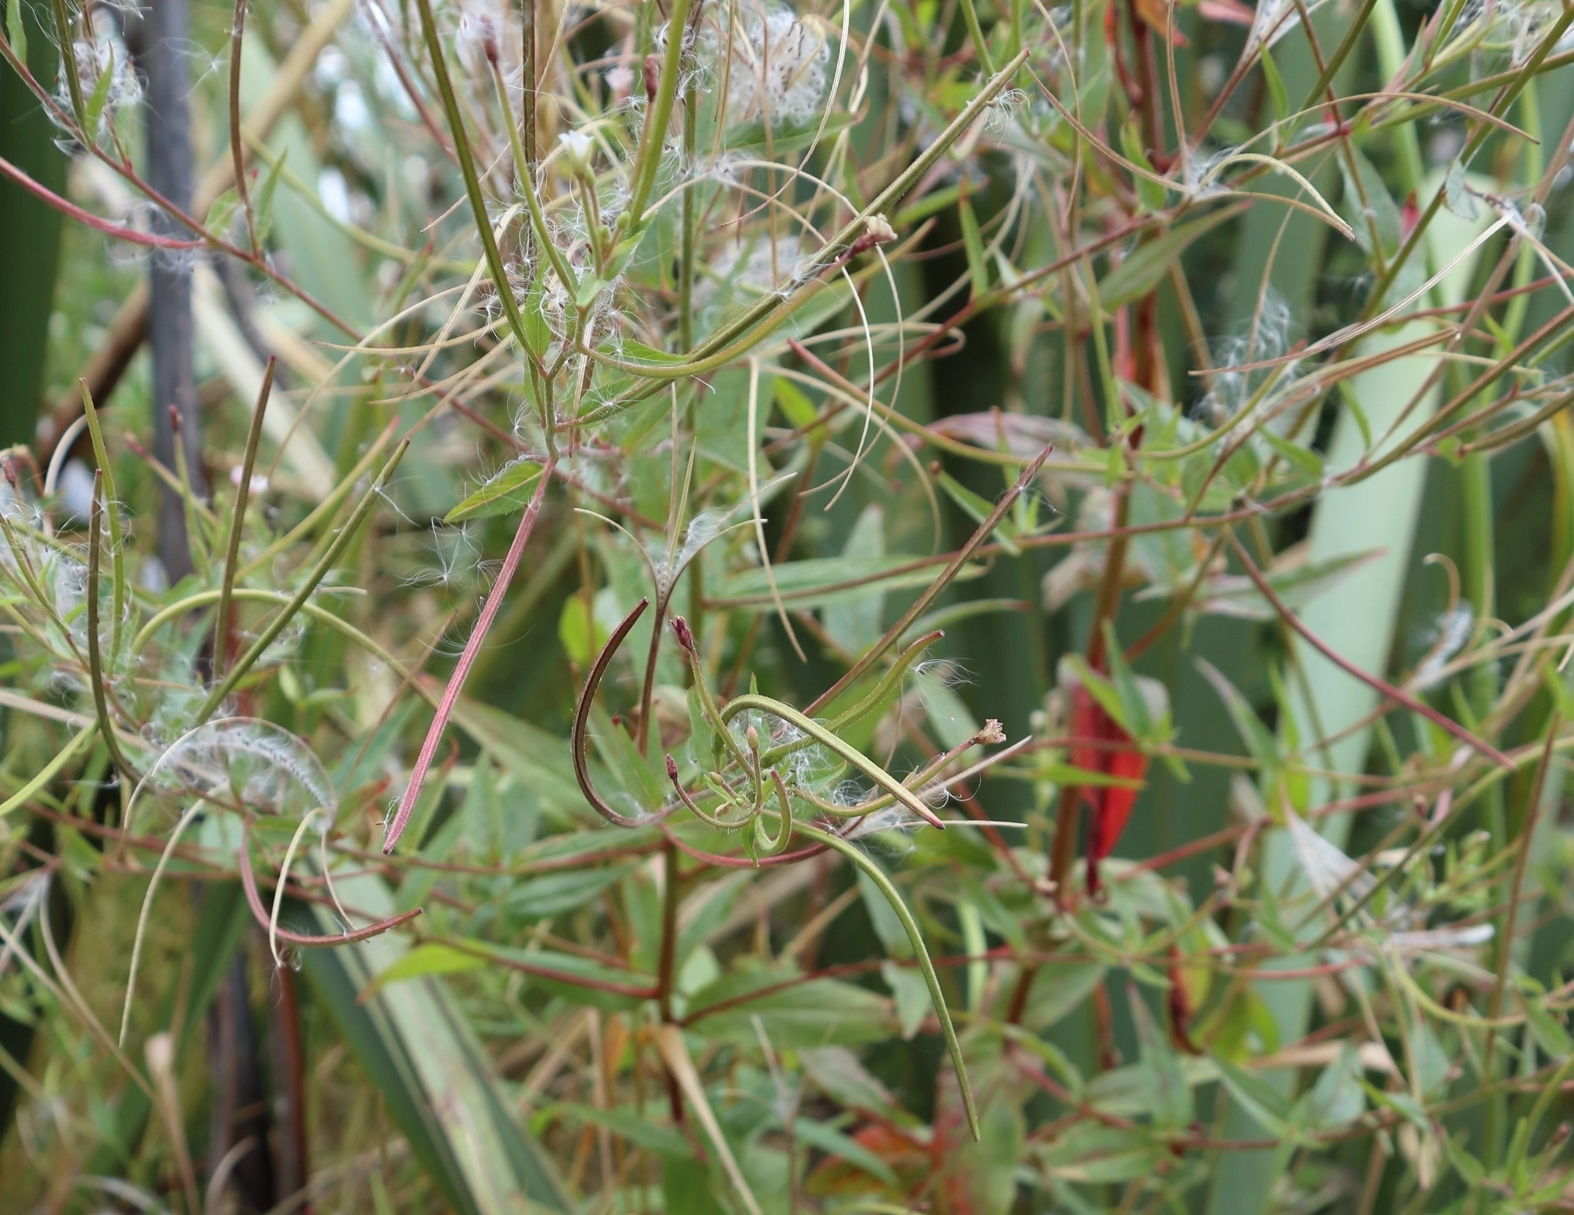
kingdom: Plantae
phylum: Tracheophyta
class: Magnoliopsida
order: Myrtales
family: Onagraceae
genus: Epilobium
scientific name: Epilobium ciliatum
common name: American willowherb
